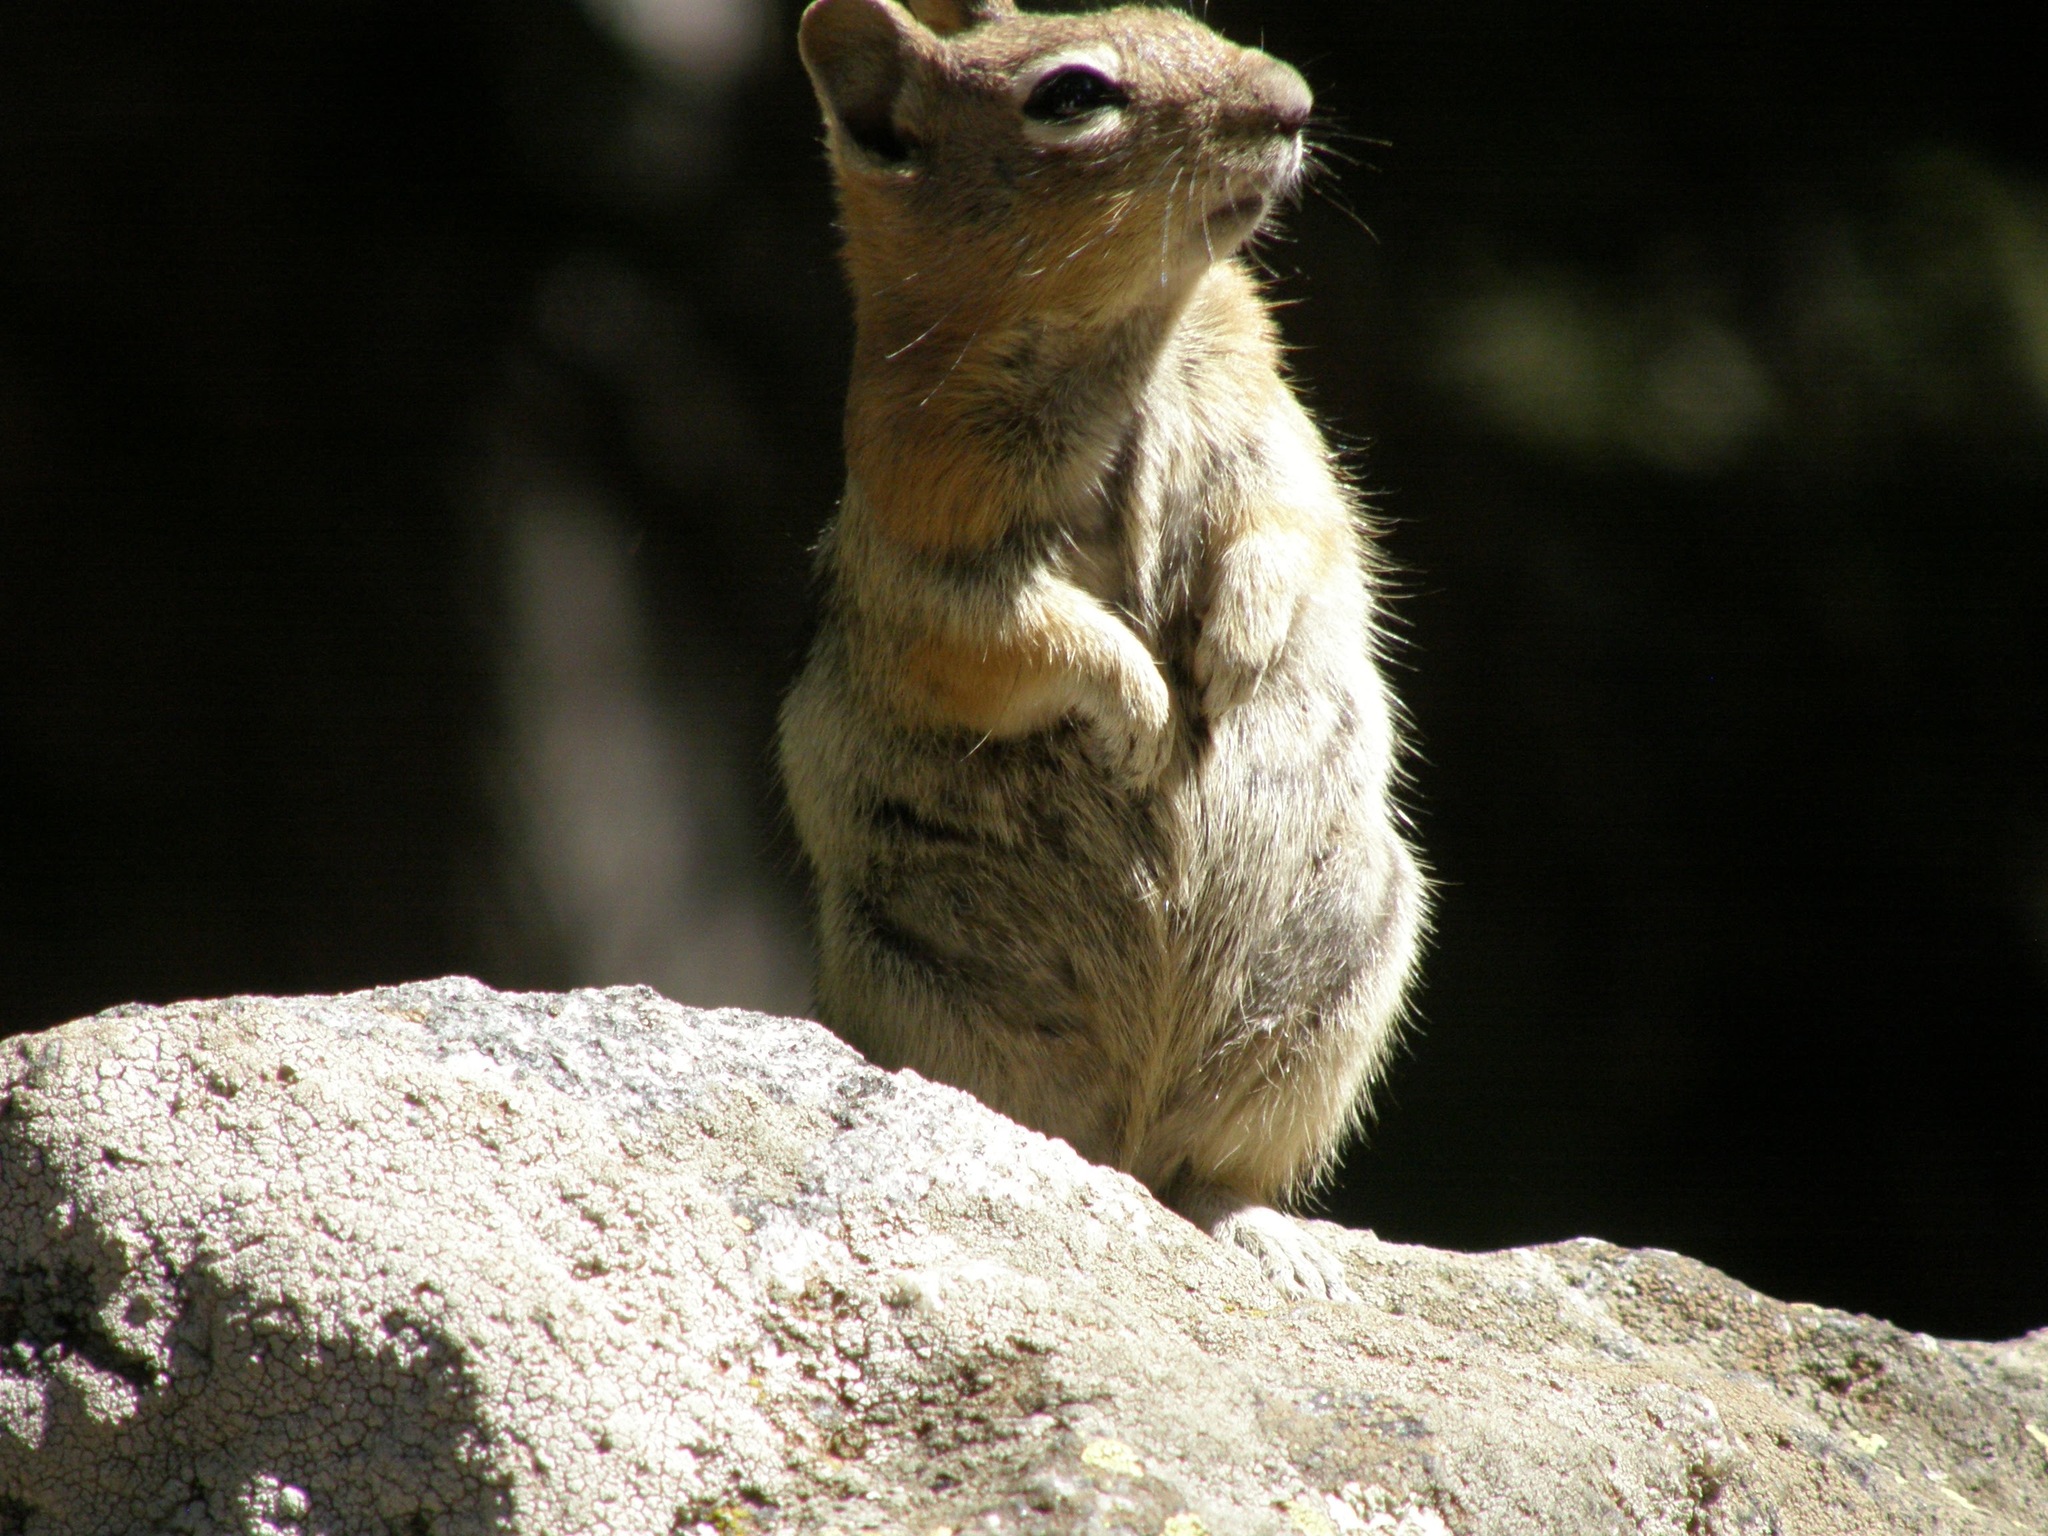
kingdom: Animalia
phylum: Chordata
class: Mammalia
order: Rodentia
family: Sciuridae
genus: Callospermophilus
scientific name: Callospermophilus lateralis
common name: Golden-mantled ground squirrel
